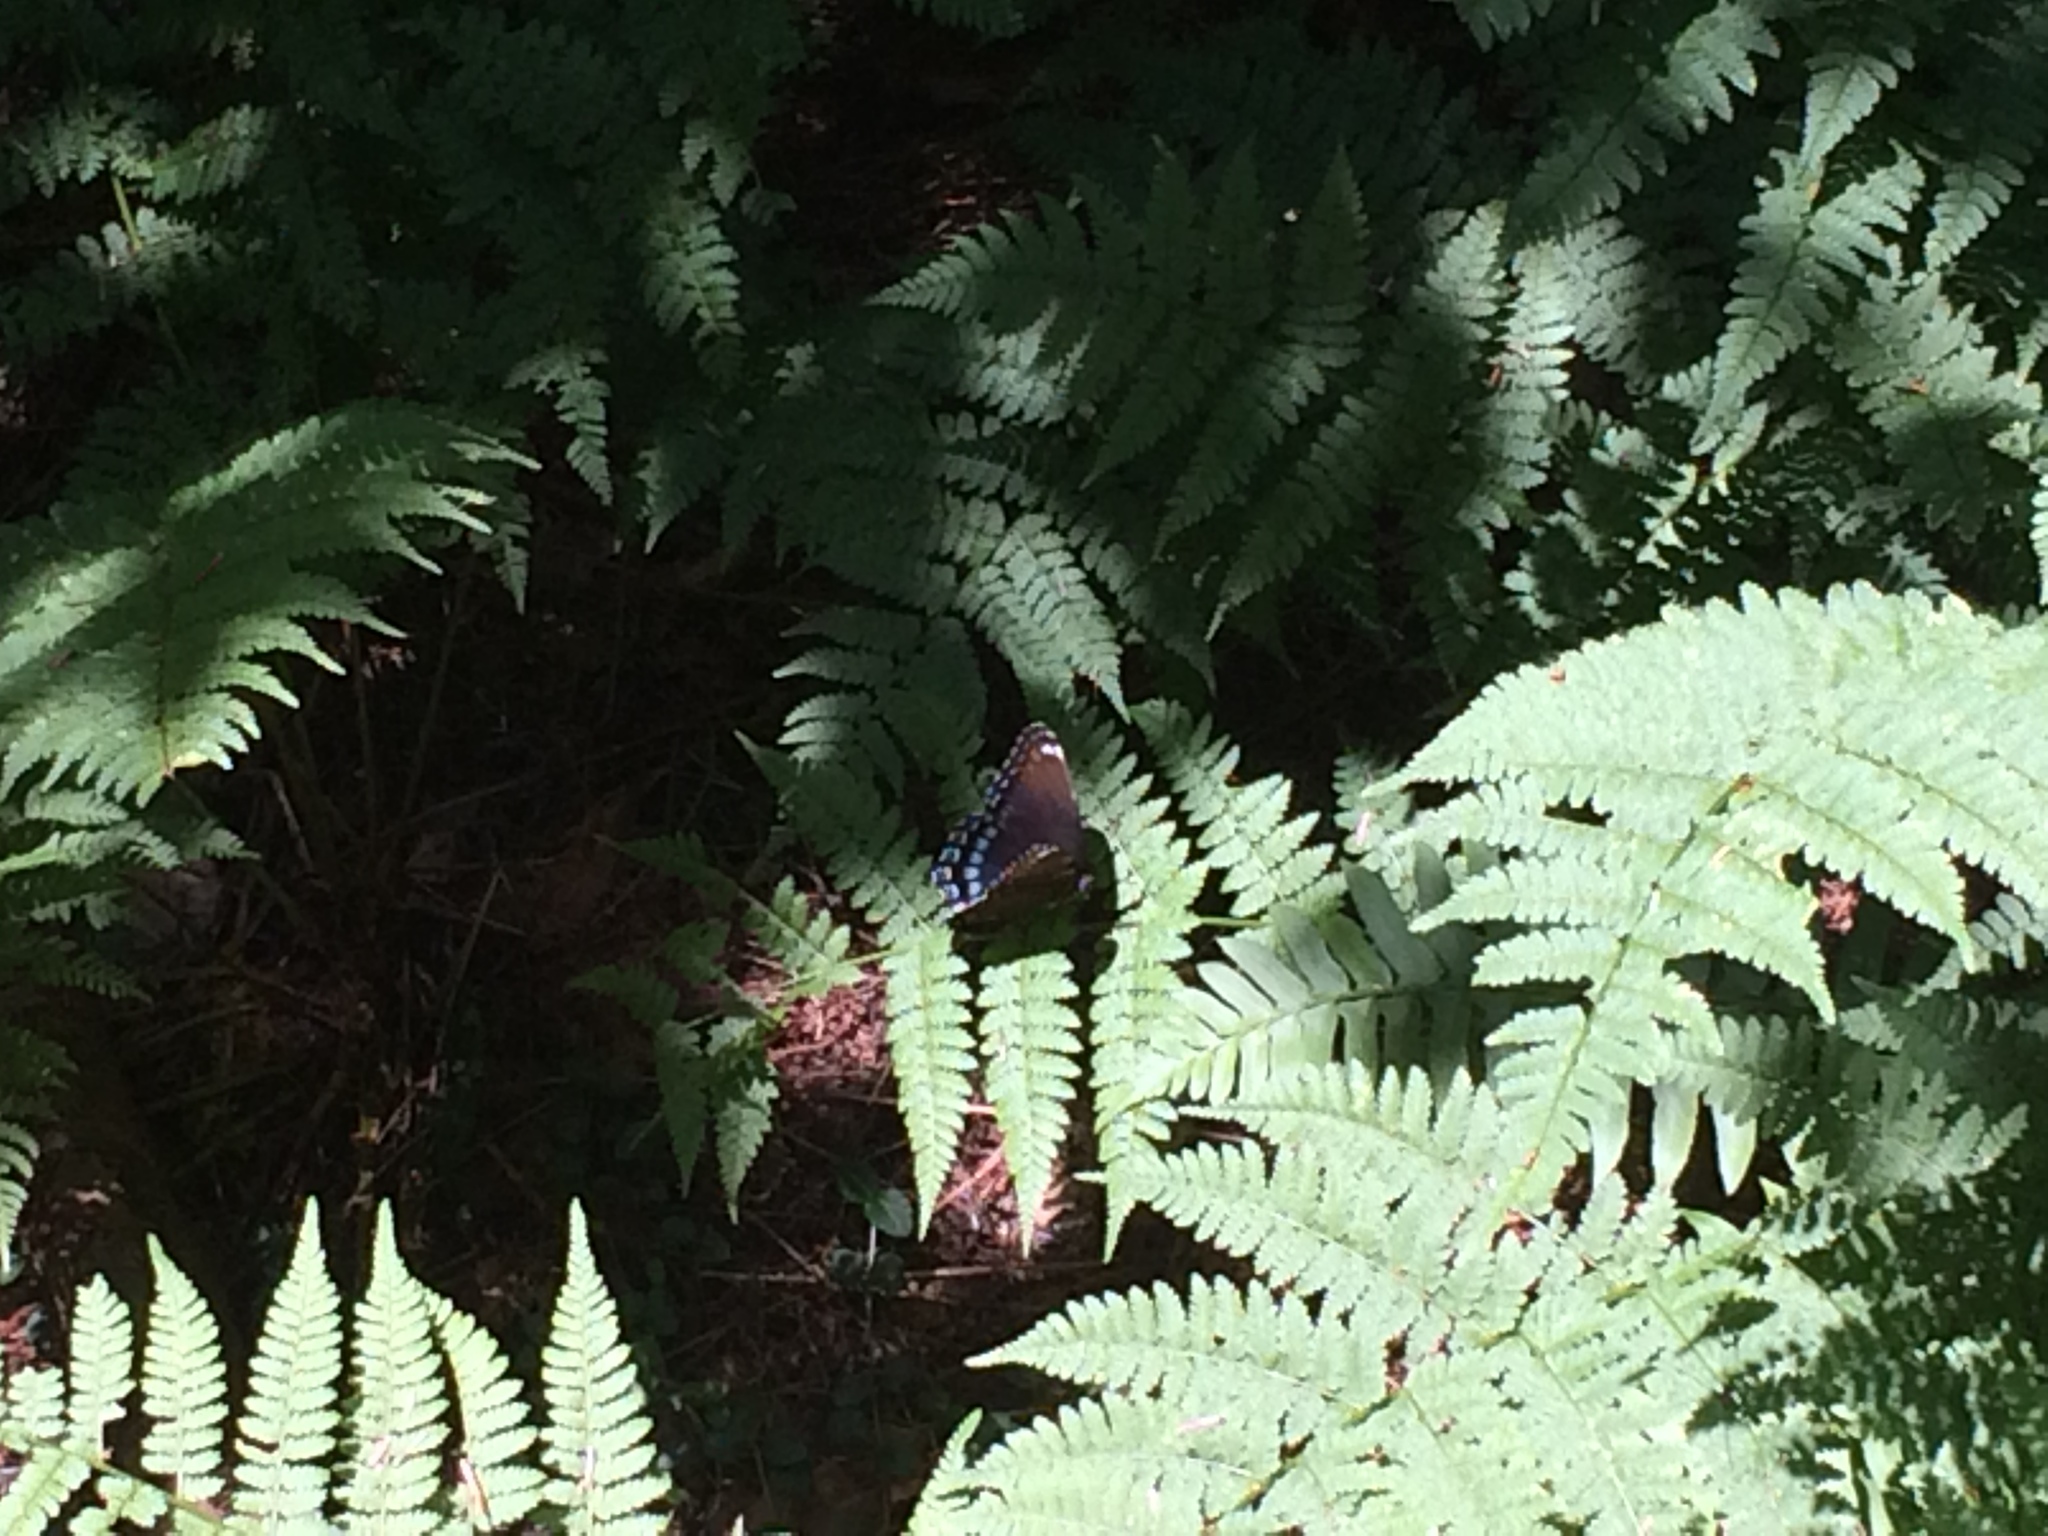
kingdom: Animalia
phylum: Arthropoda
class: Insecta
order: Lepidoptera
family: Nymphalidae
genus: Limenitis
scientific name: Limenitis astyanax
